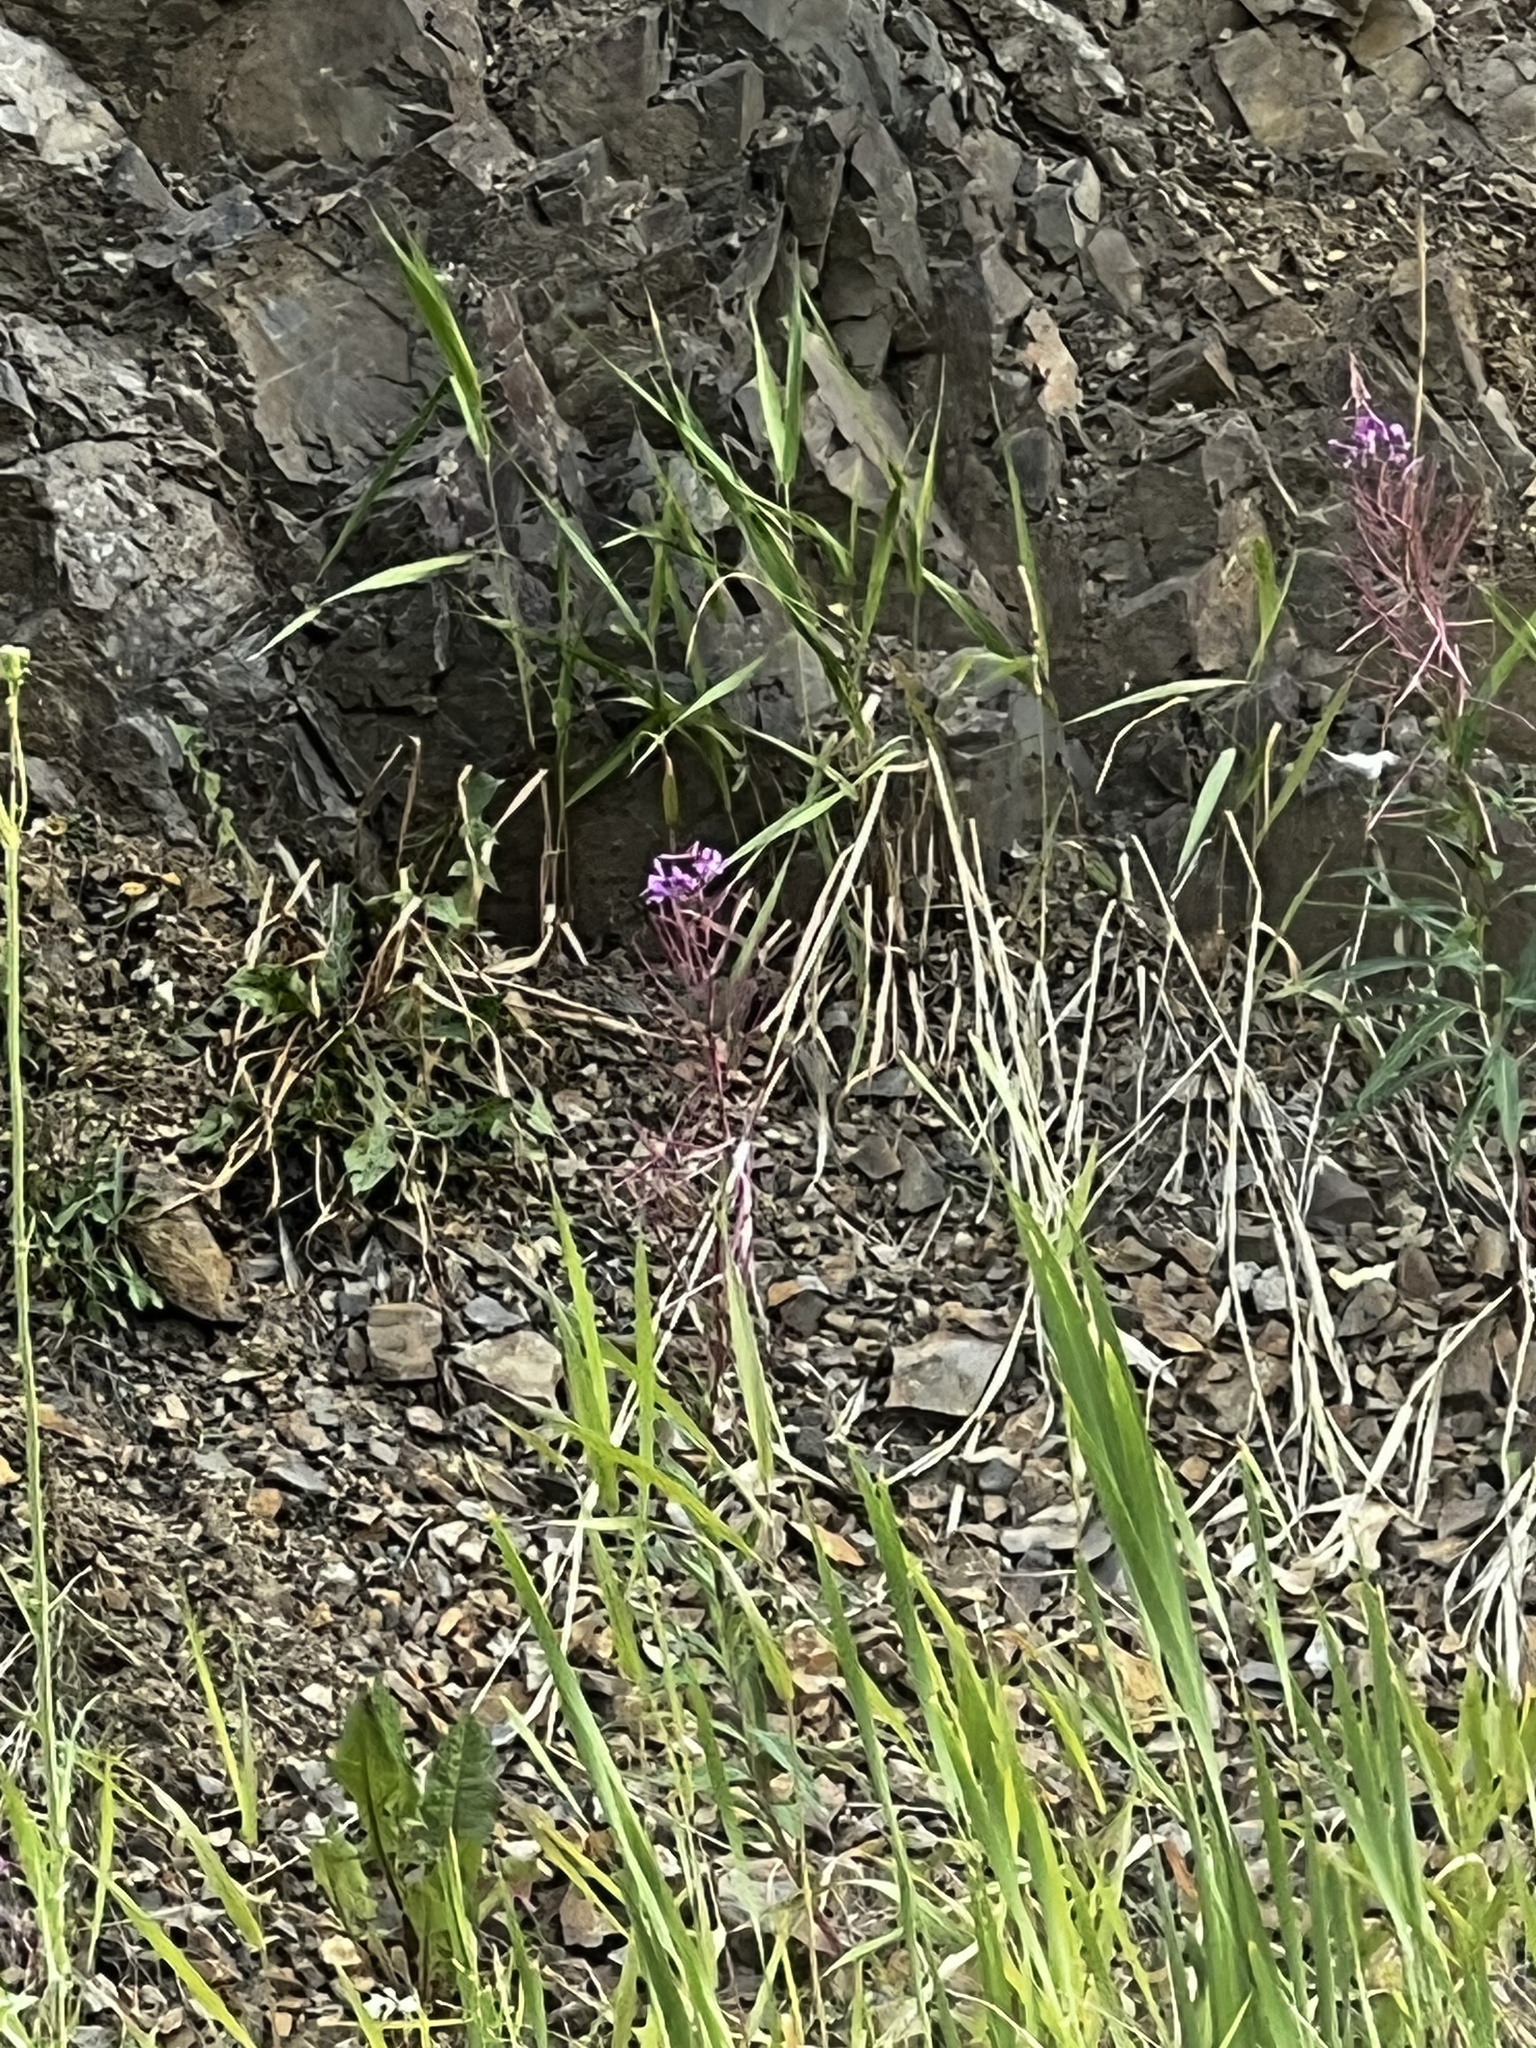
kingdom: Plantae
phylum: Tracheophyta
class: Magnoliopsida
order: Myrtales
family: Onagraceae
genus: Chamaenerion
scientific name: Chamaenerion angustifolium
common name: Fireweed
